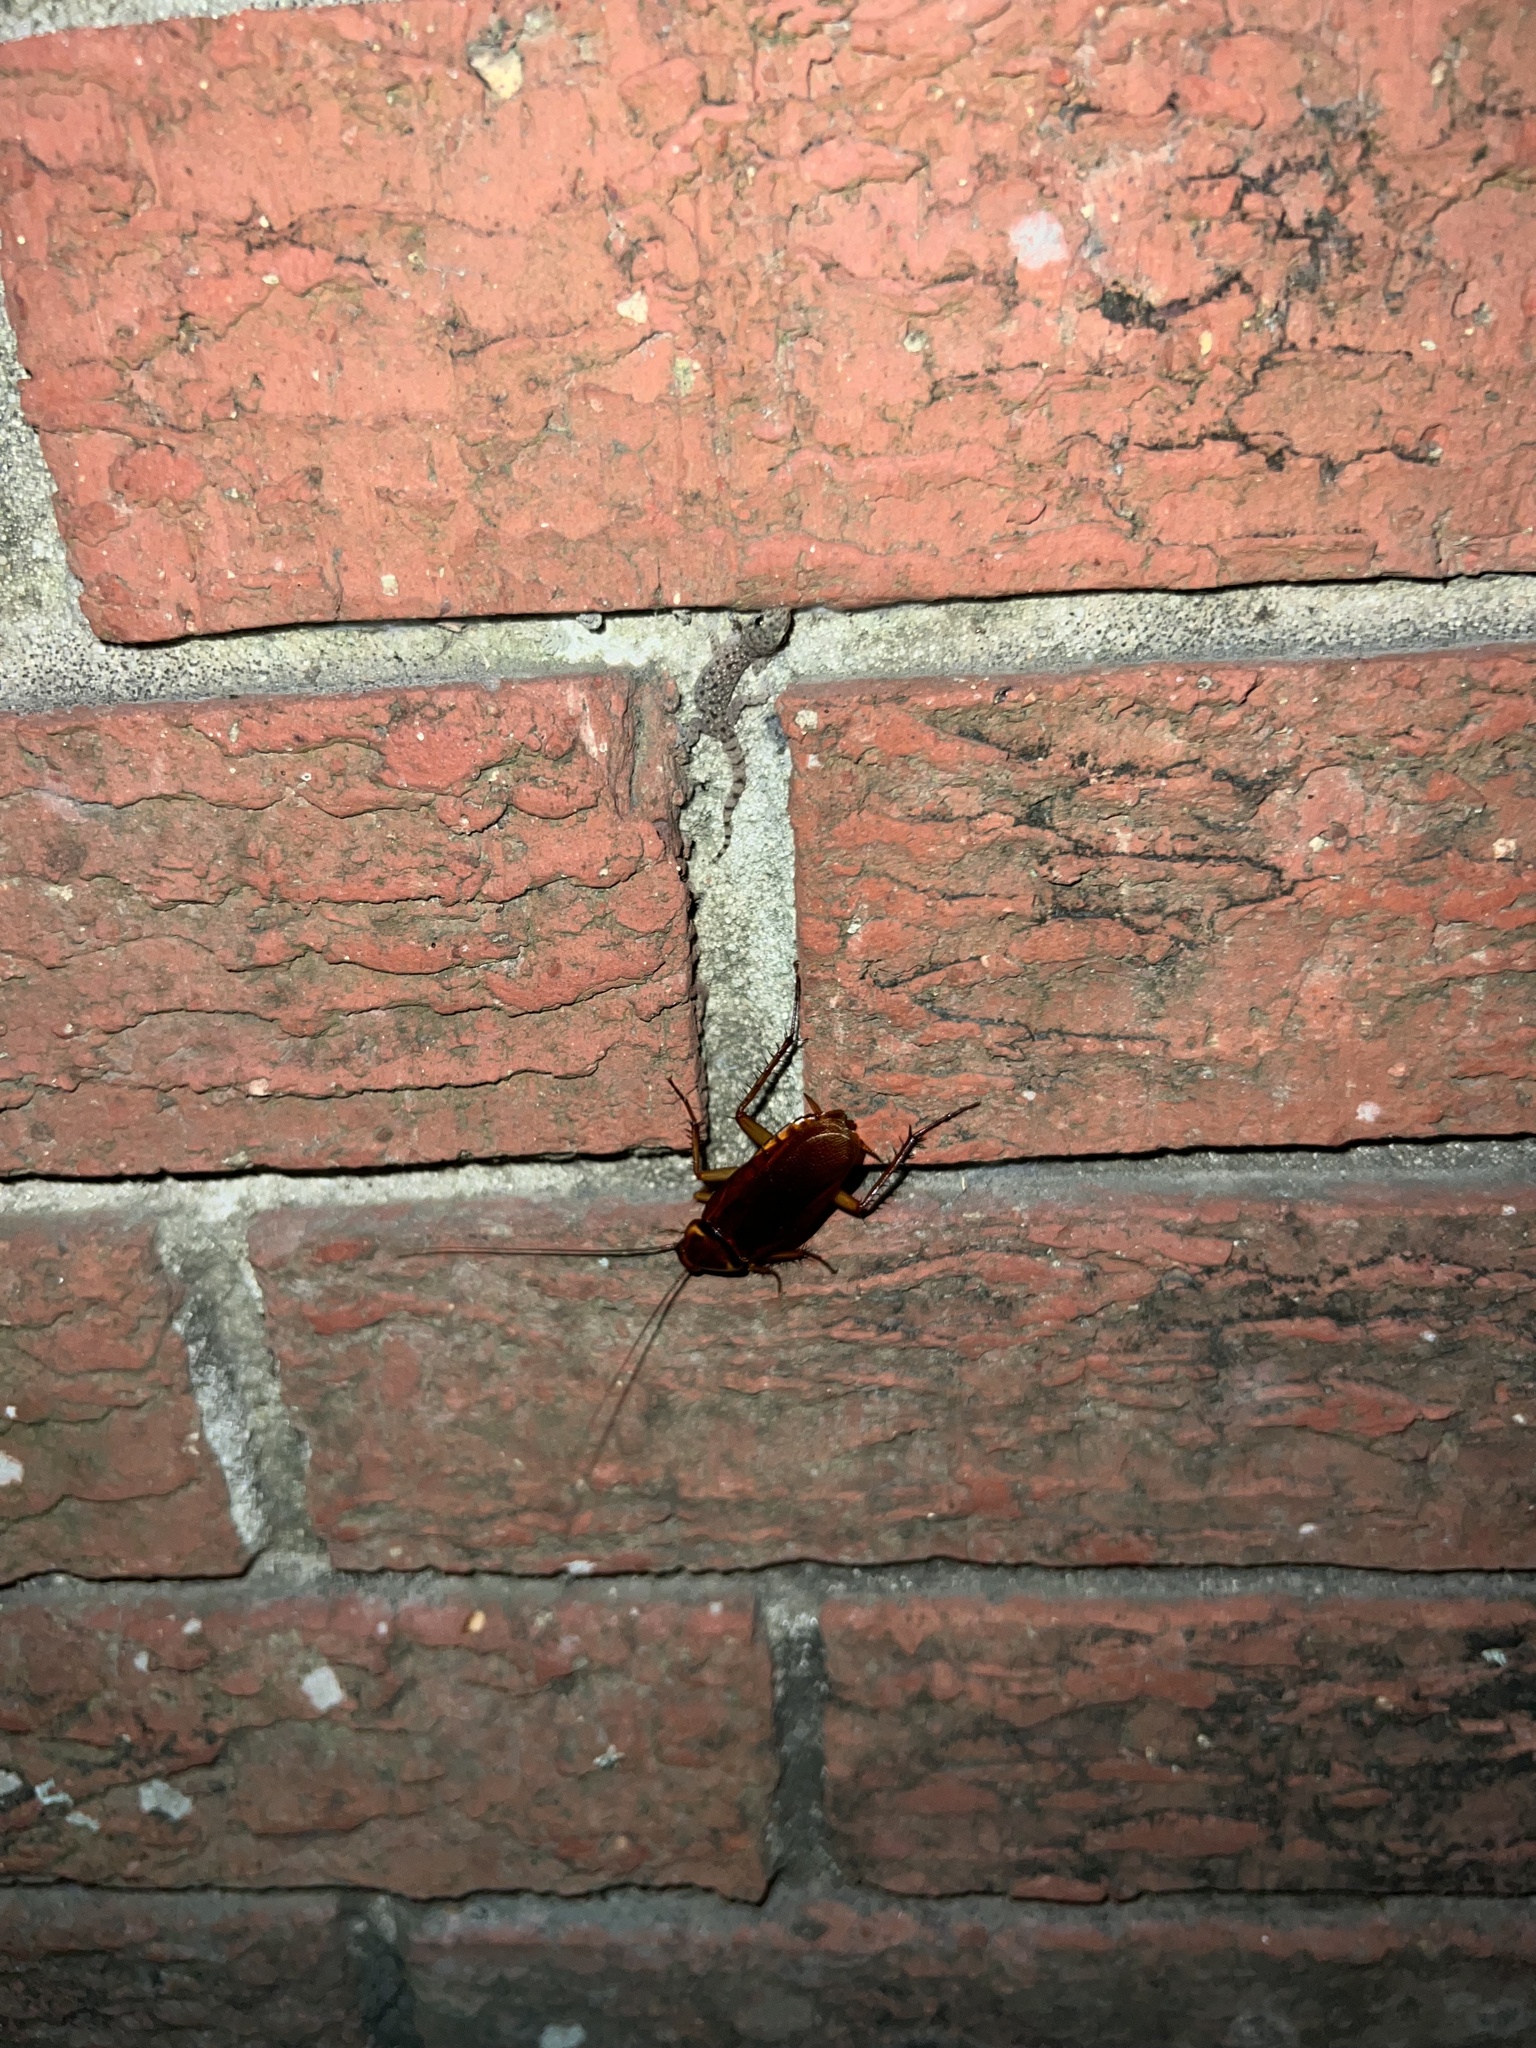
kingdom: Animalia
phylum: Arthropoda
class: Insecta
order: Blattodea
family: Blattidae
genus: Periplaneta
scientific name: Periplaneta americana
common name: American cockroach
